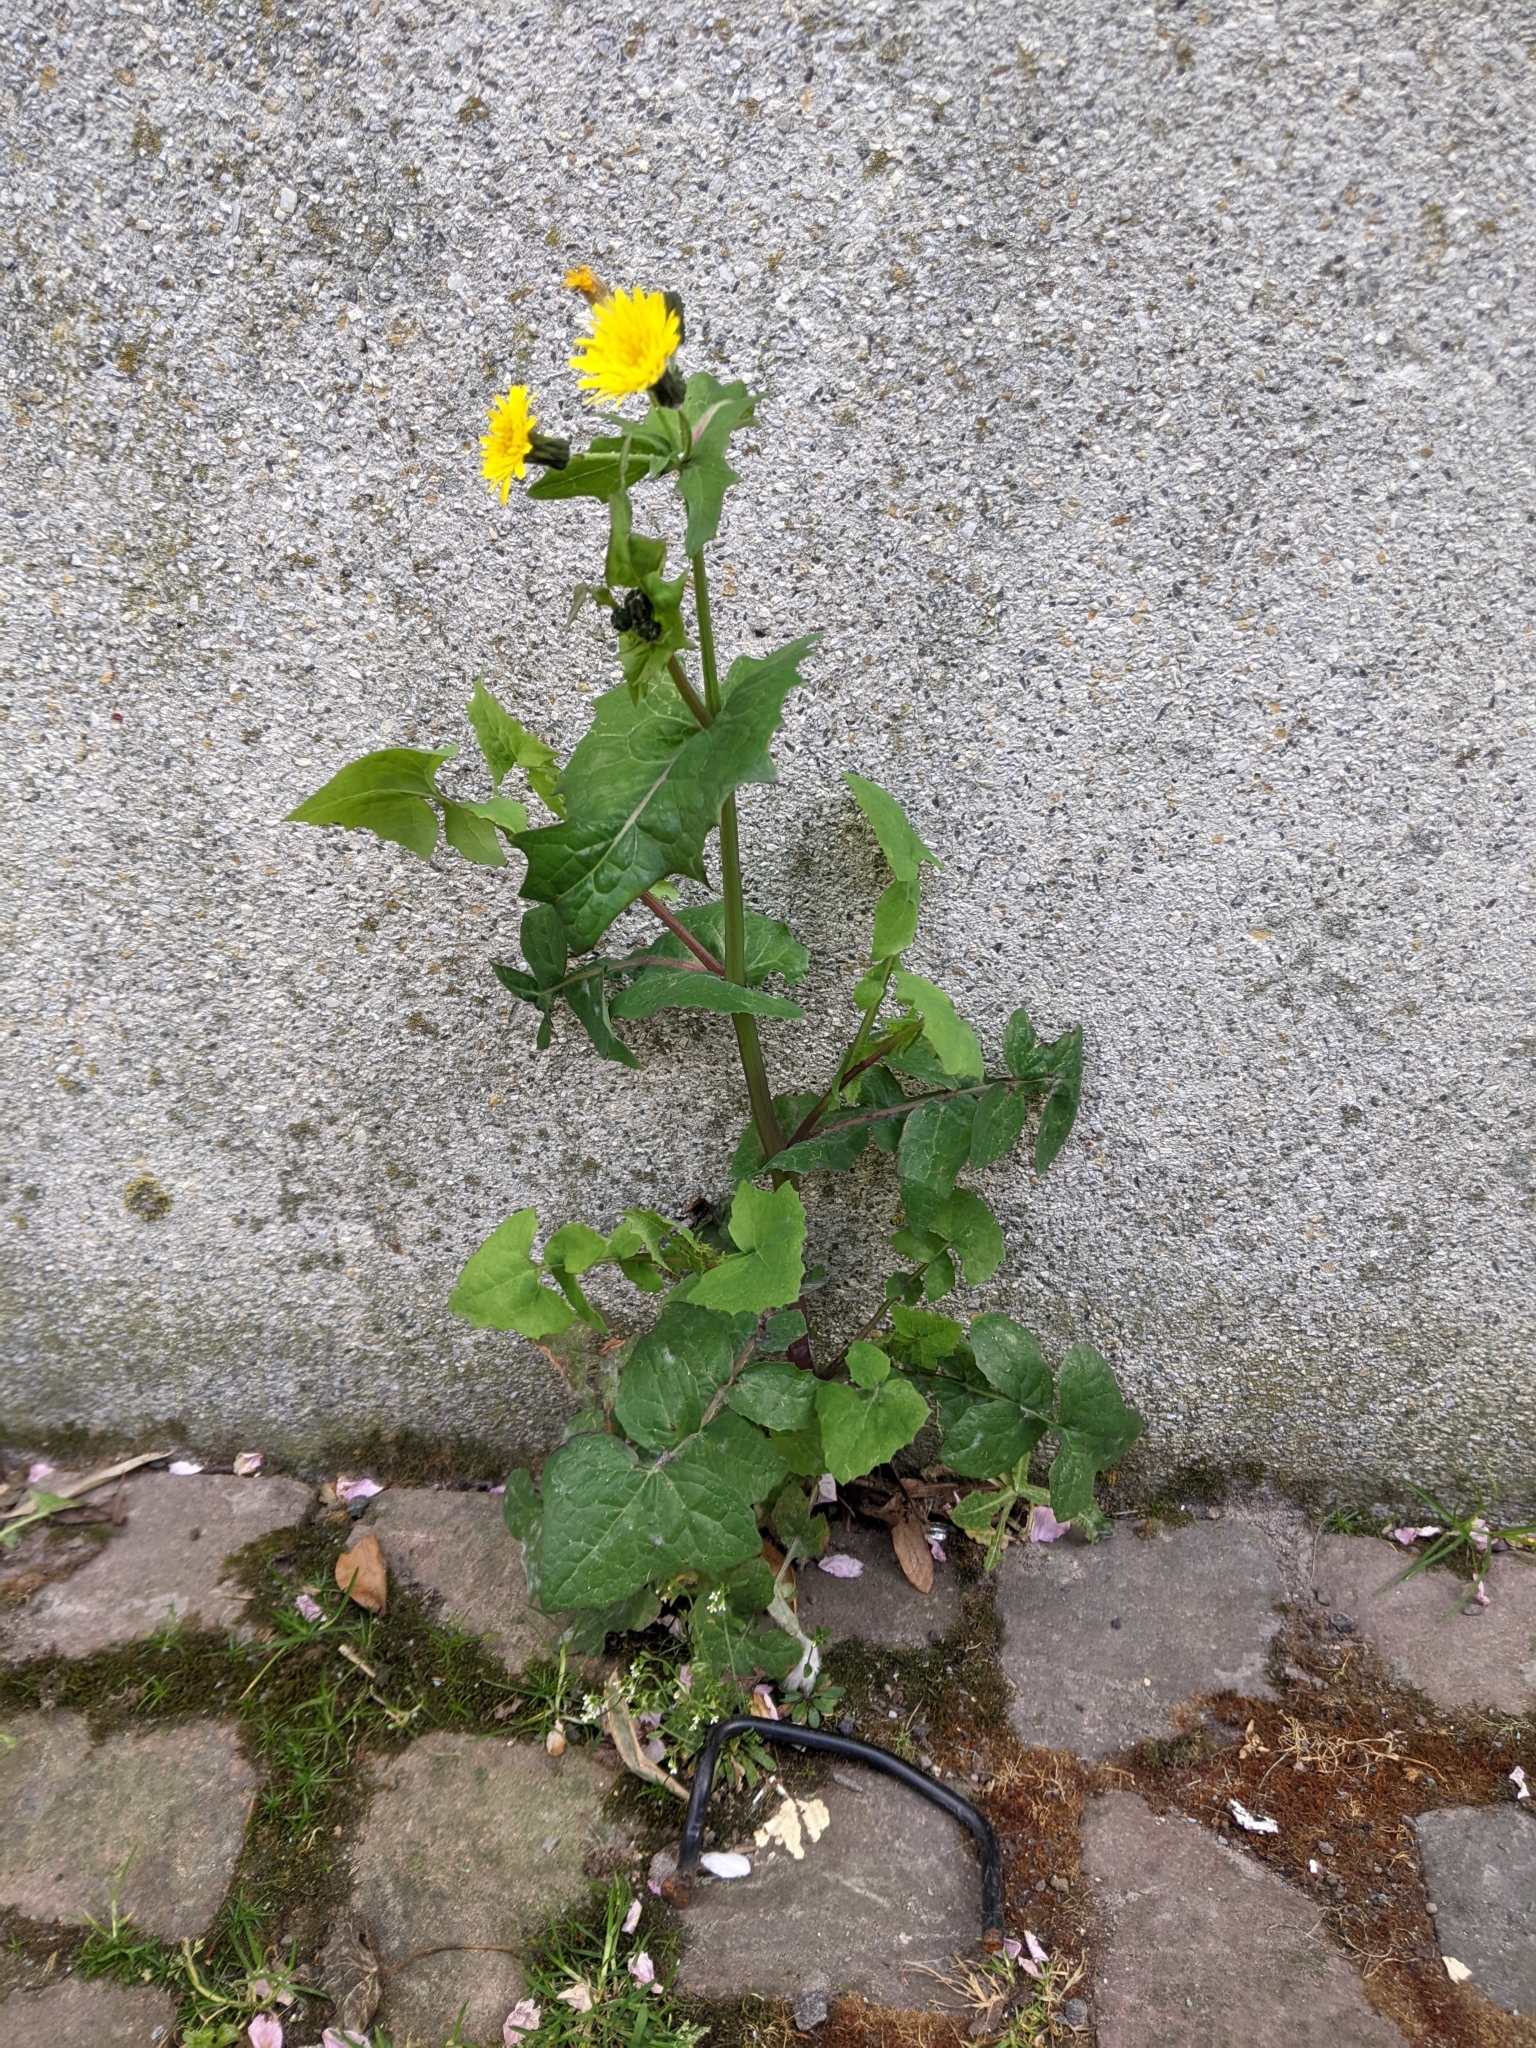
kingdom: Plantae
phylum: Tracheophyta
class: Magnoliopsida
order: Asterales
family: Asteraceae
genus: Sonchus
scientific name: Sonchus oleraceus
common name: Common sowthistle
